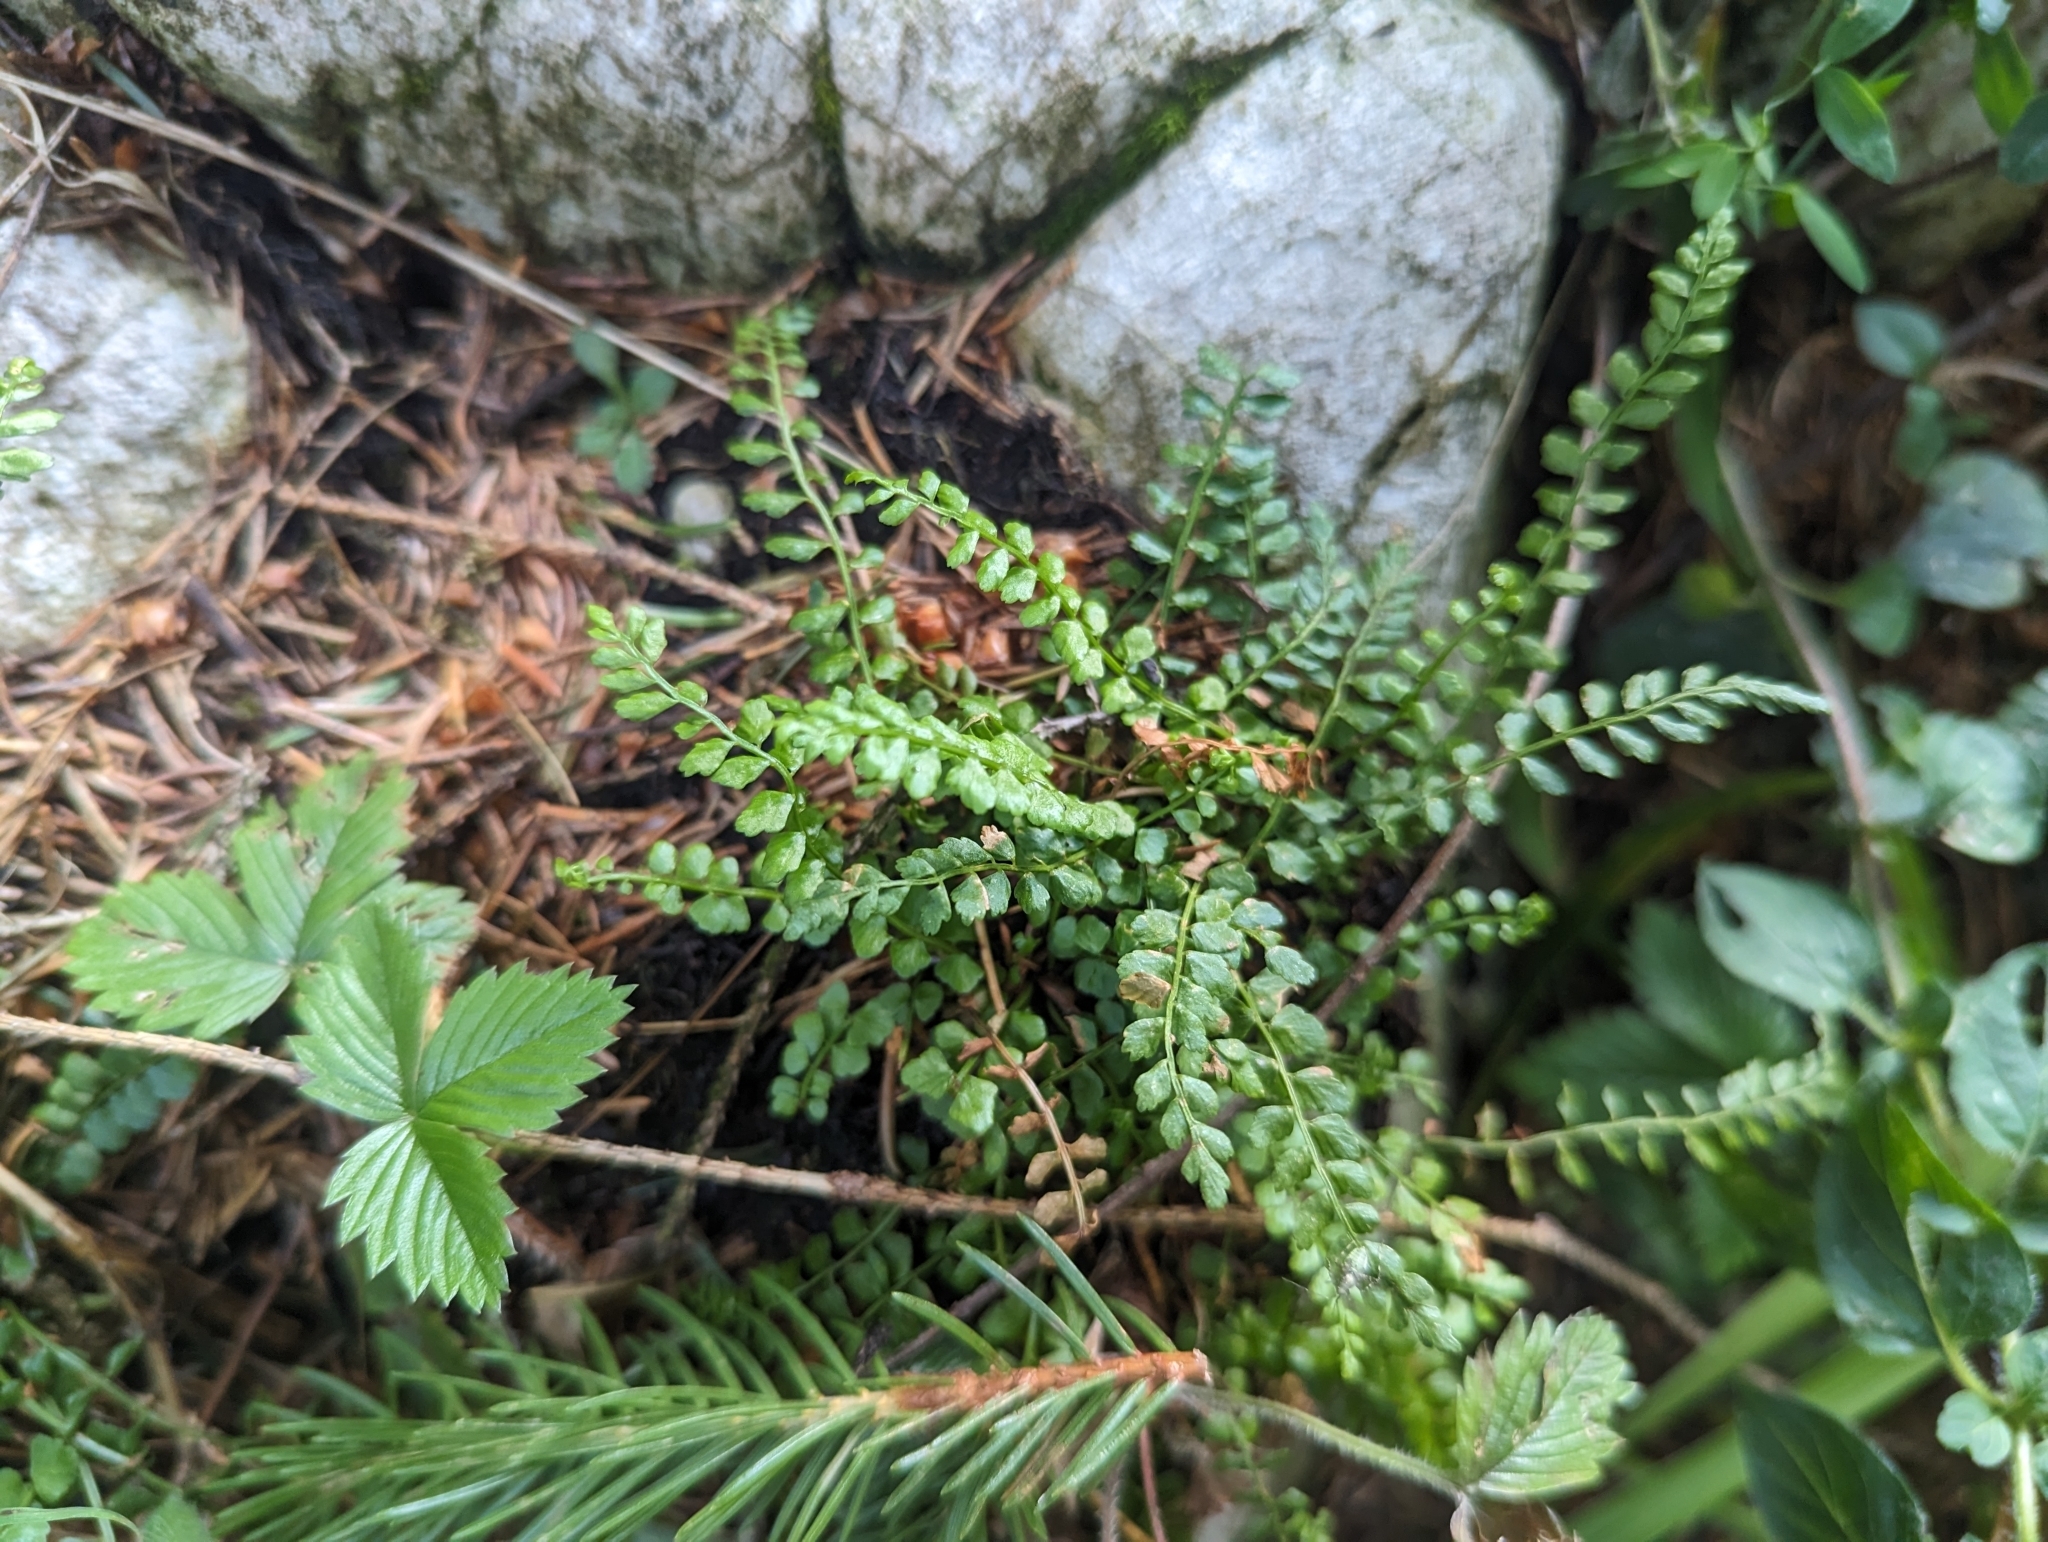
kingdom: Plantae
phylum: Tracheophyta
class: Polypodiopsida
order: Polypodiales
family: Aspleniaceae
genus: Asplenium
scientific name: Asplenium viride
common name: Green spleenwort
